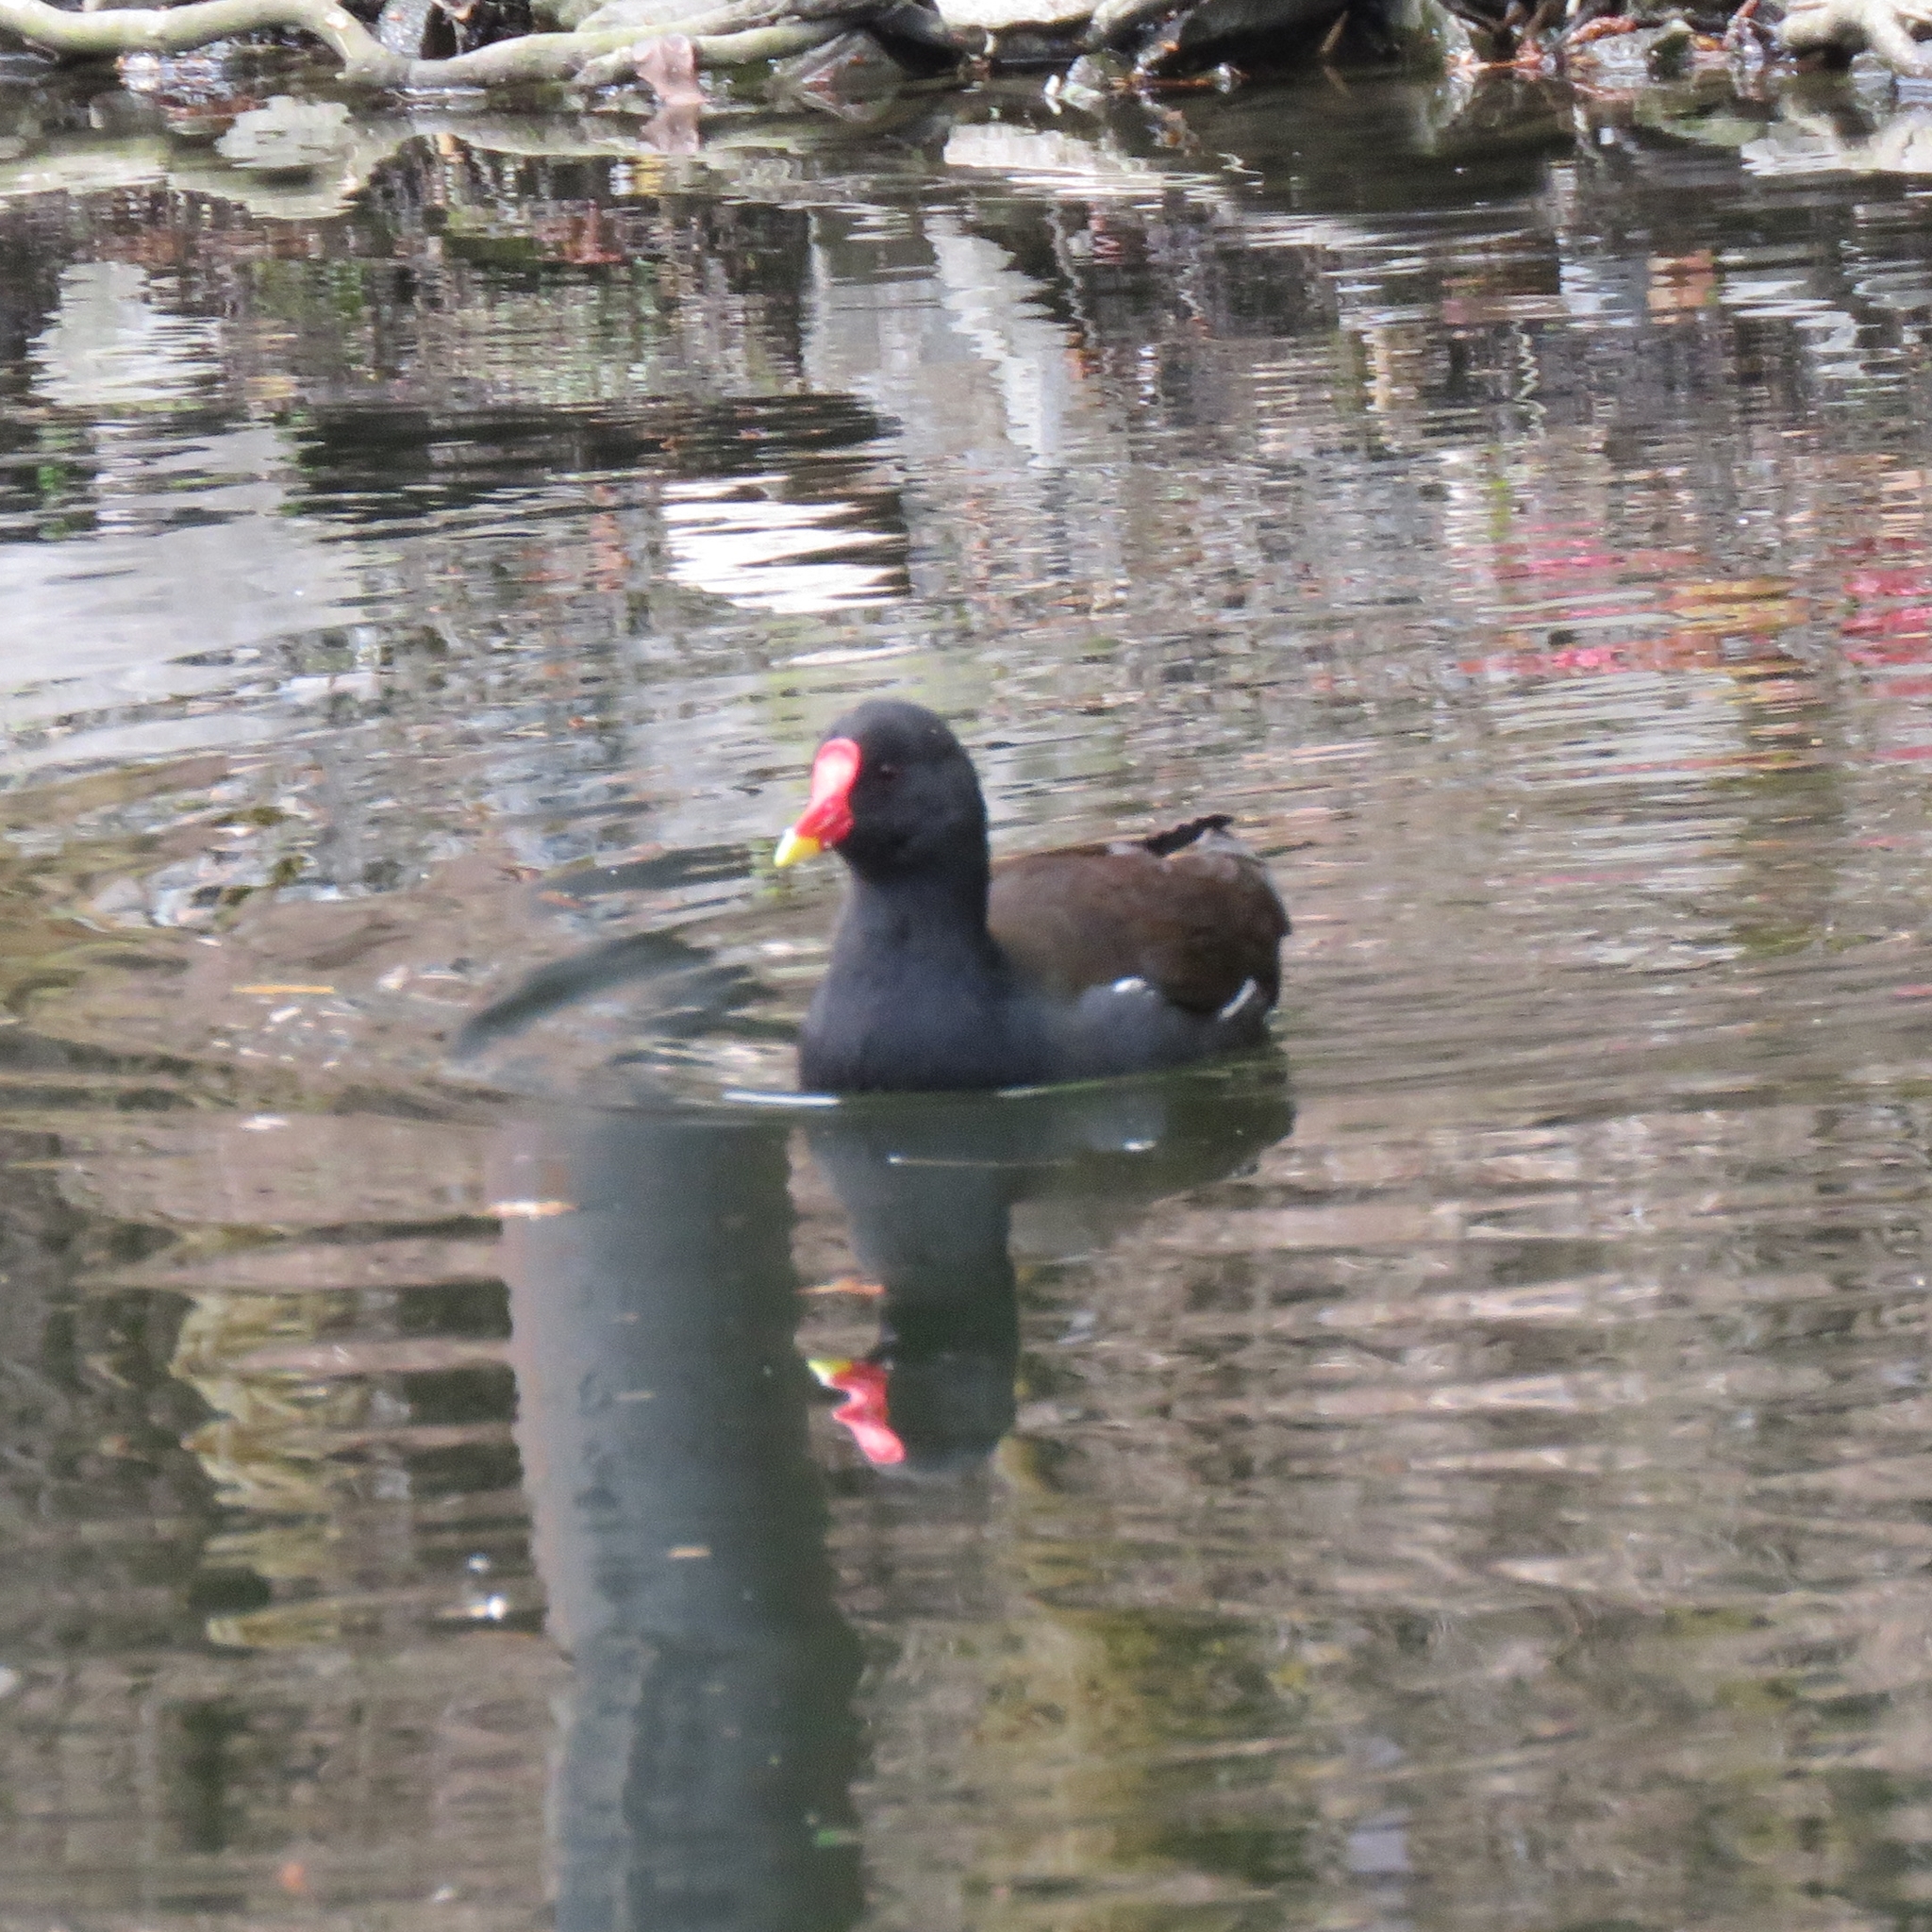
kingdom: Animalia
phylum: Chordata
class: Aves
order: Gruiformes
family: Rallidae
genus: Gallinula
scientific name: Gallinula chloropus
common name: Common moorhen
